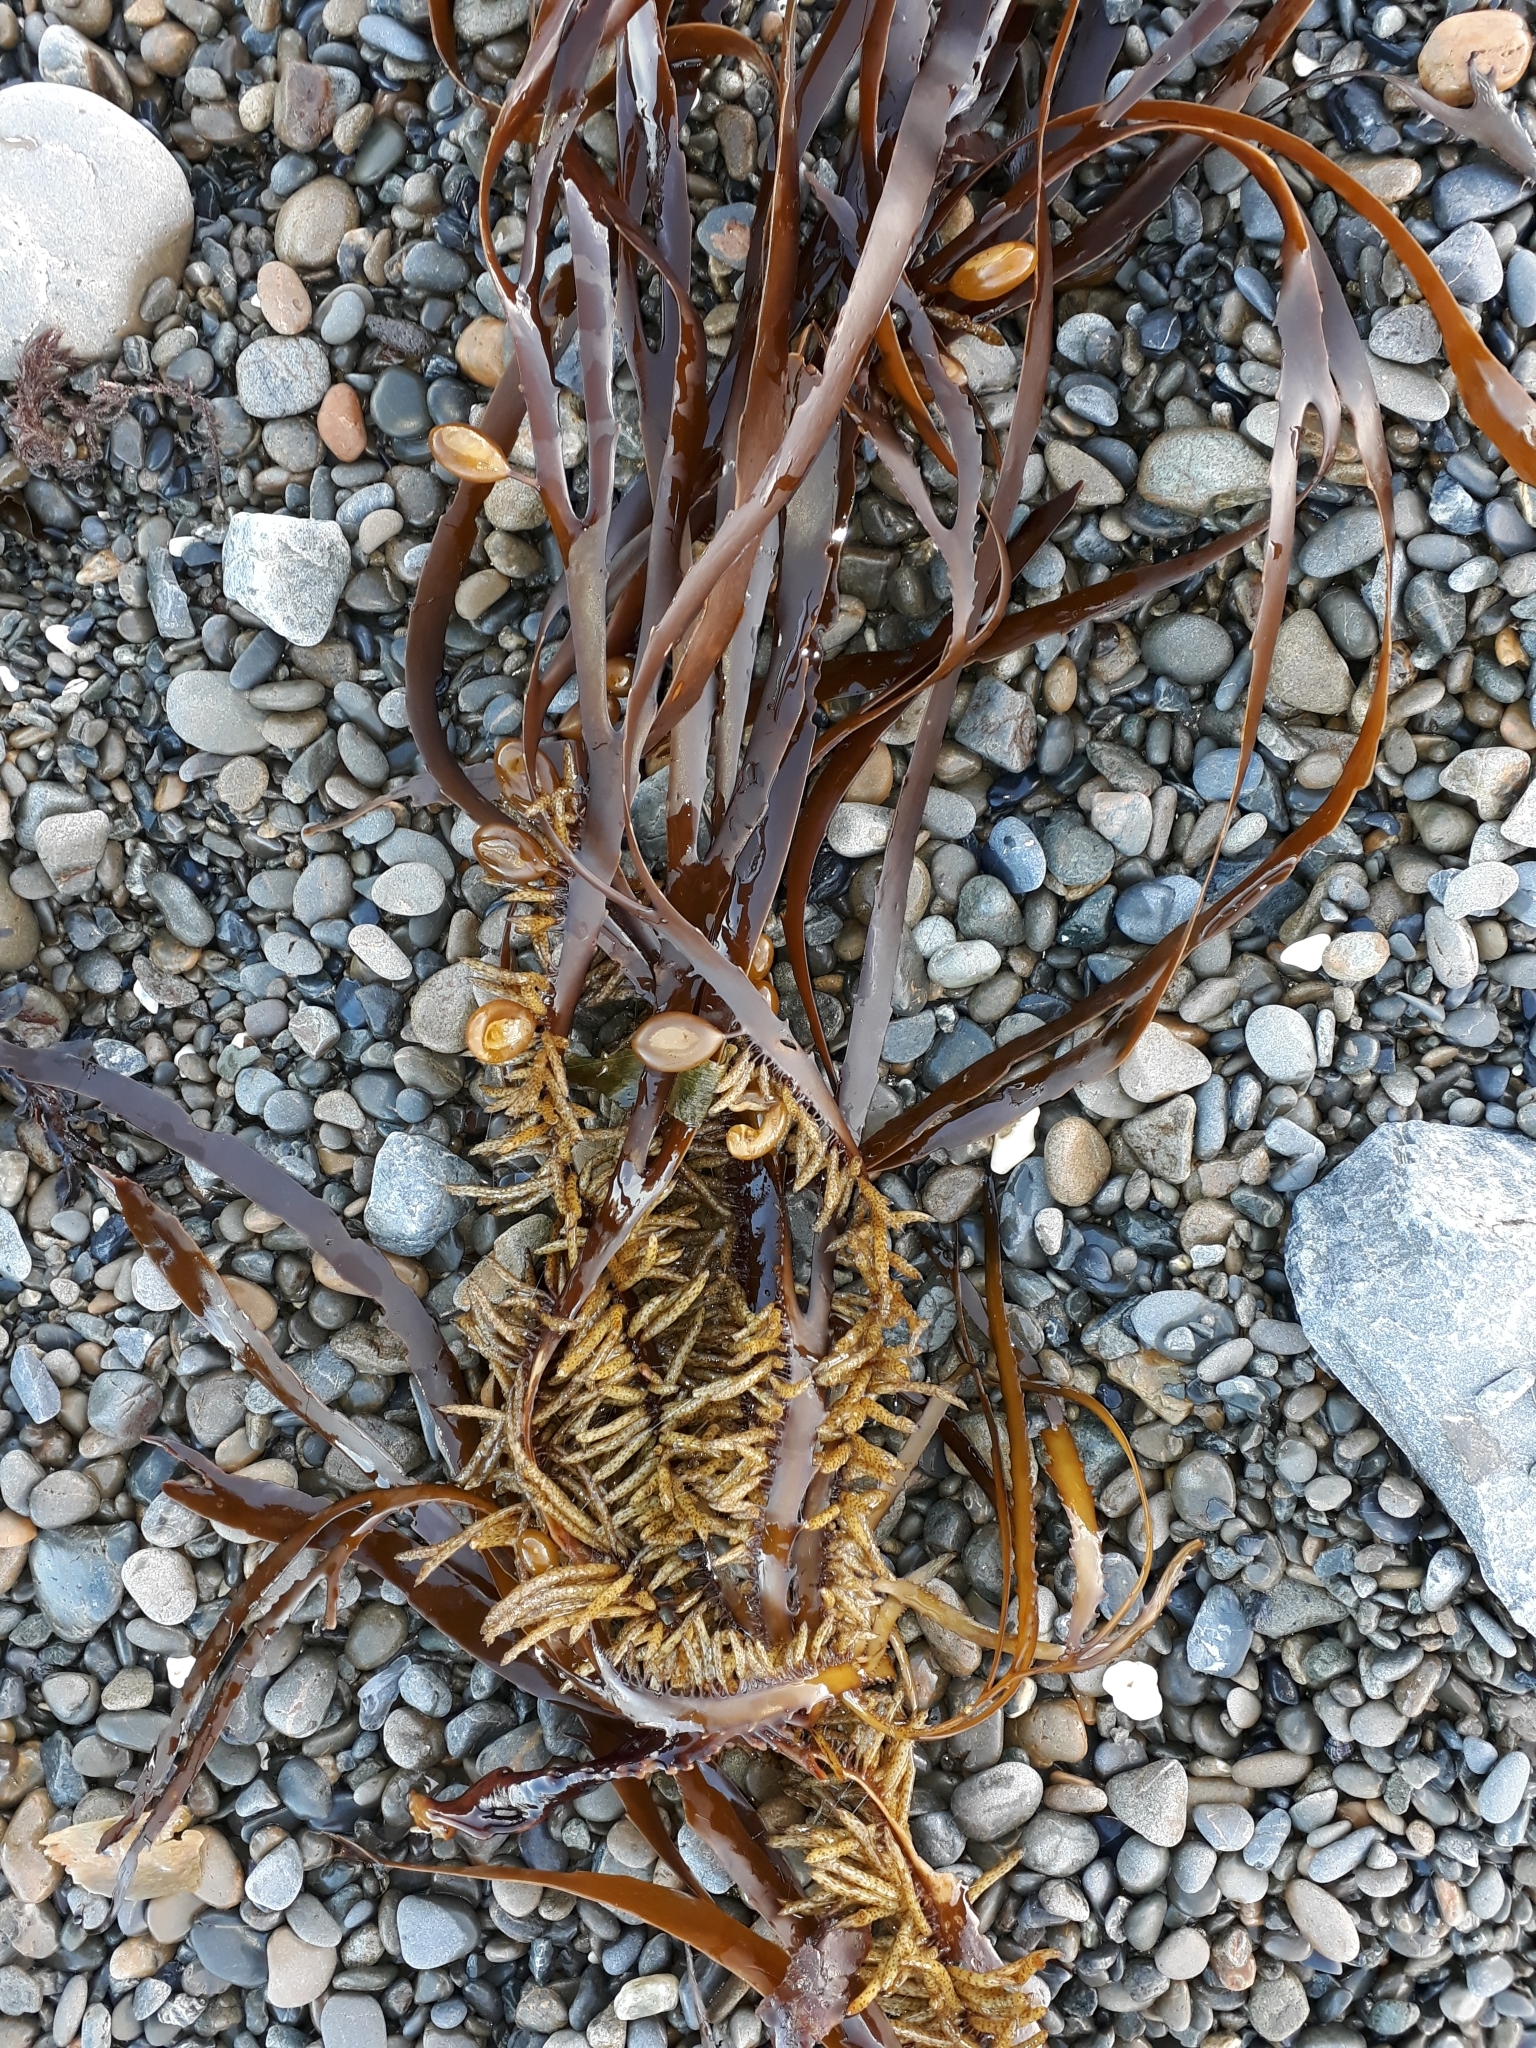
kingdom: Chromista
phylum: Ochrophyta
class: Phaeophyceae
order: Fucales
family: Seirococcaceae
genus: Marginariella
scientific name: Marginariella boryana
